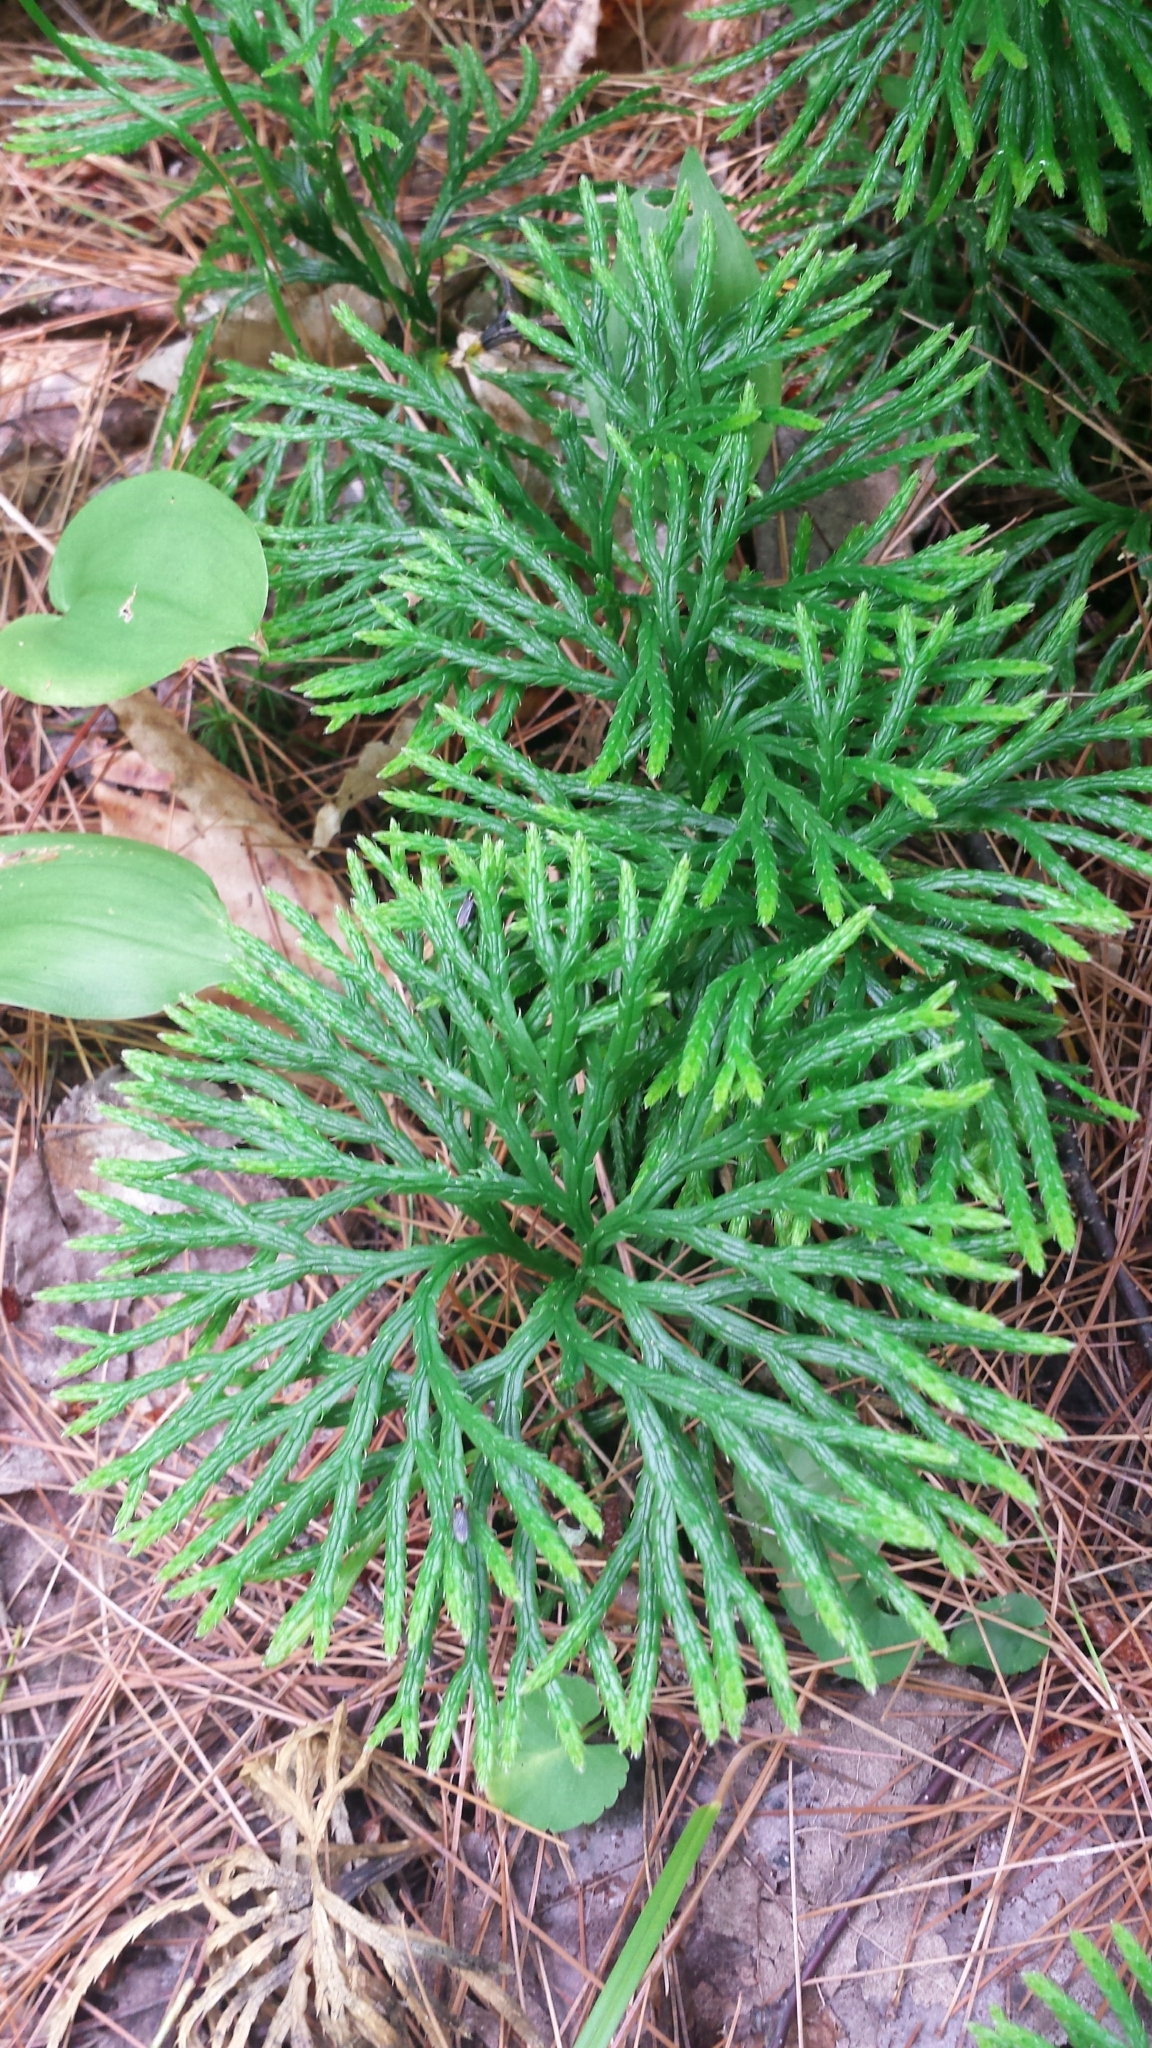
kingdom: Plantae
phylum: Tracheophyta
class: Lycopodiopsida
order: Lycopodiales
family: Lycopodiaceae
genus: Diphasiastrum
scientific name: Diphasiastrum digitatum
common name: Southern running-pine
